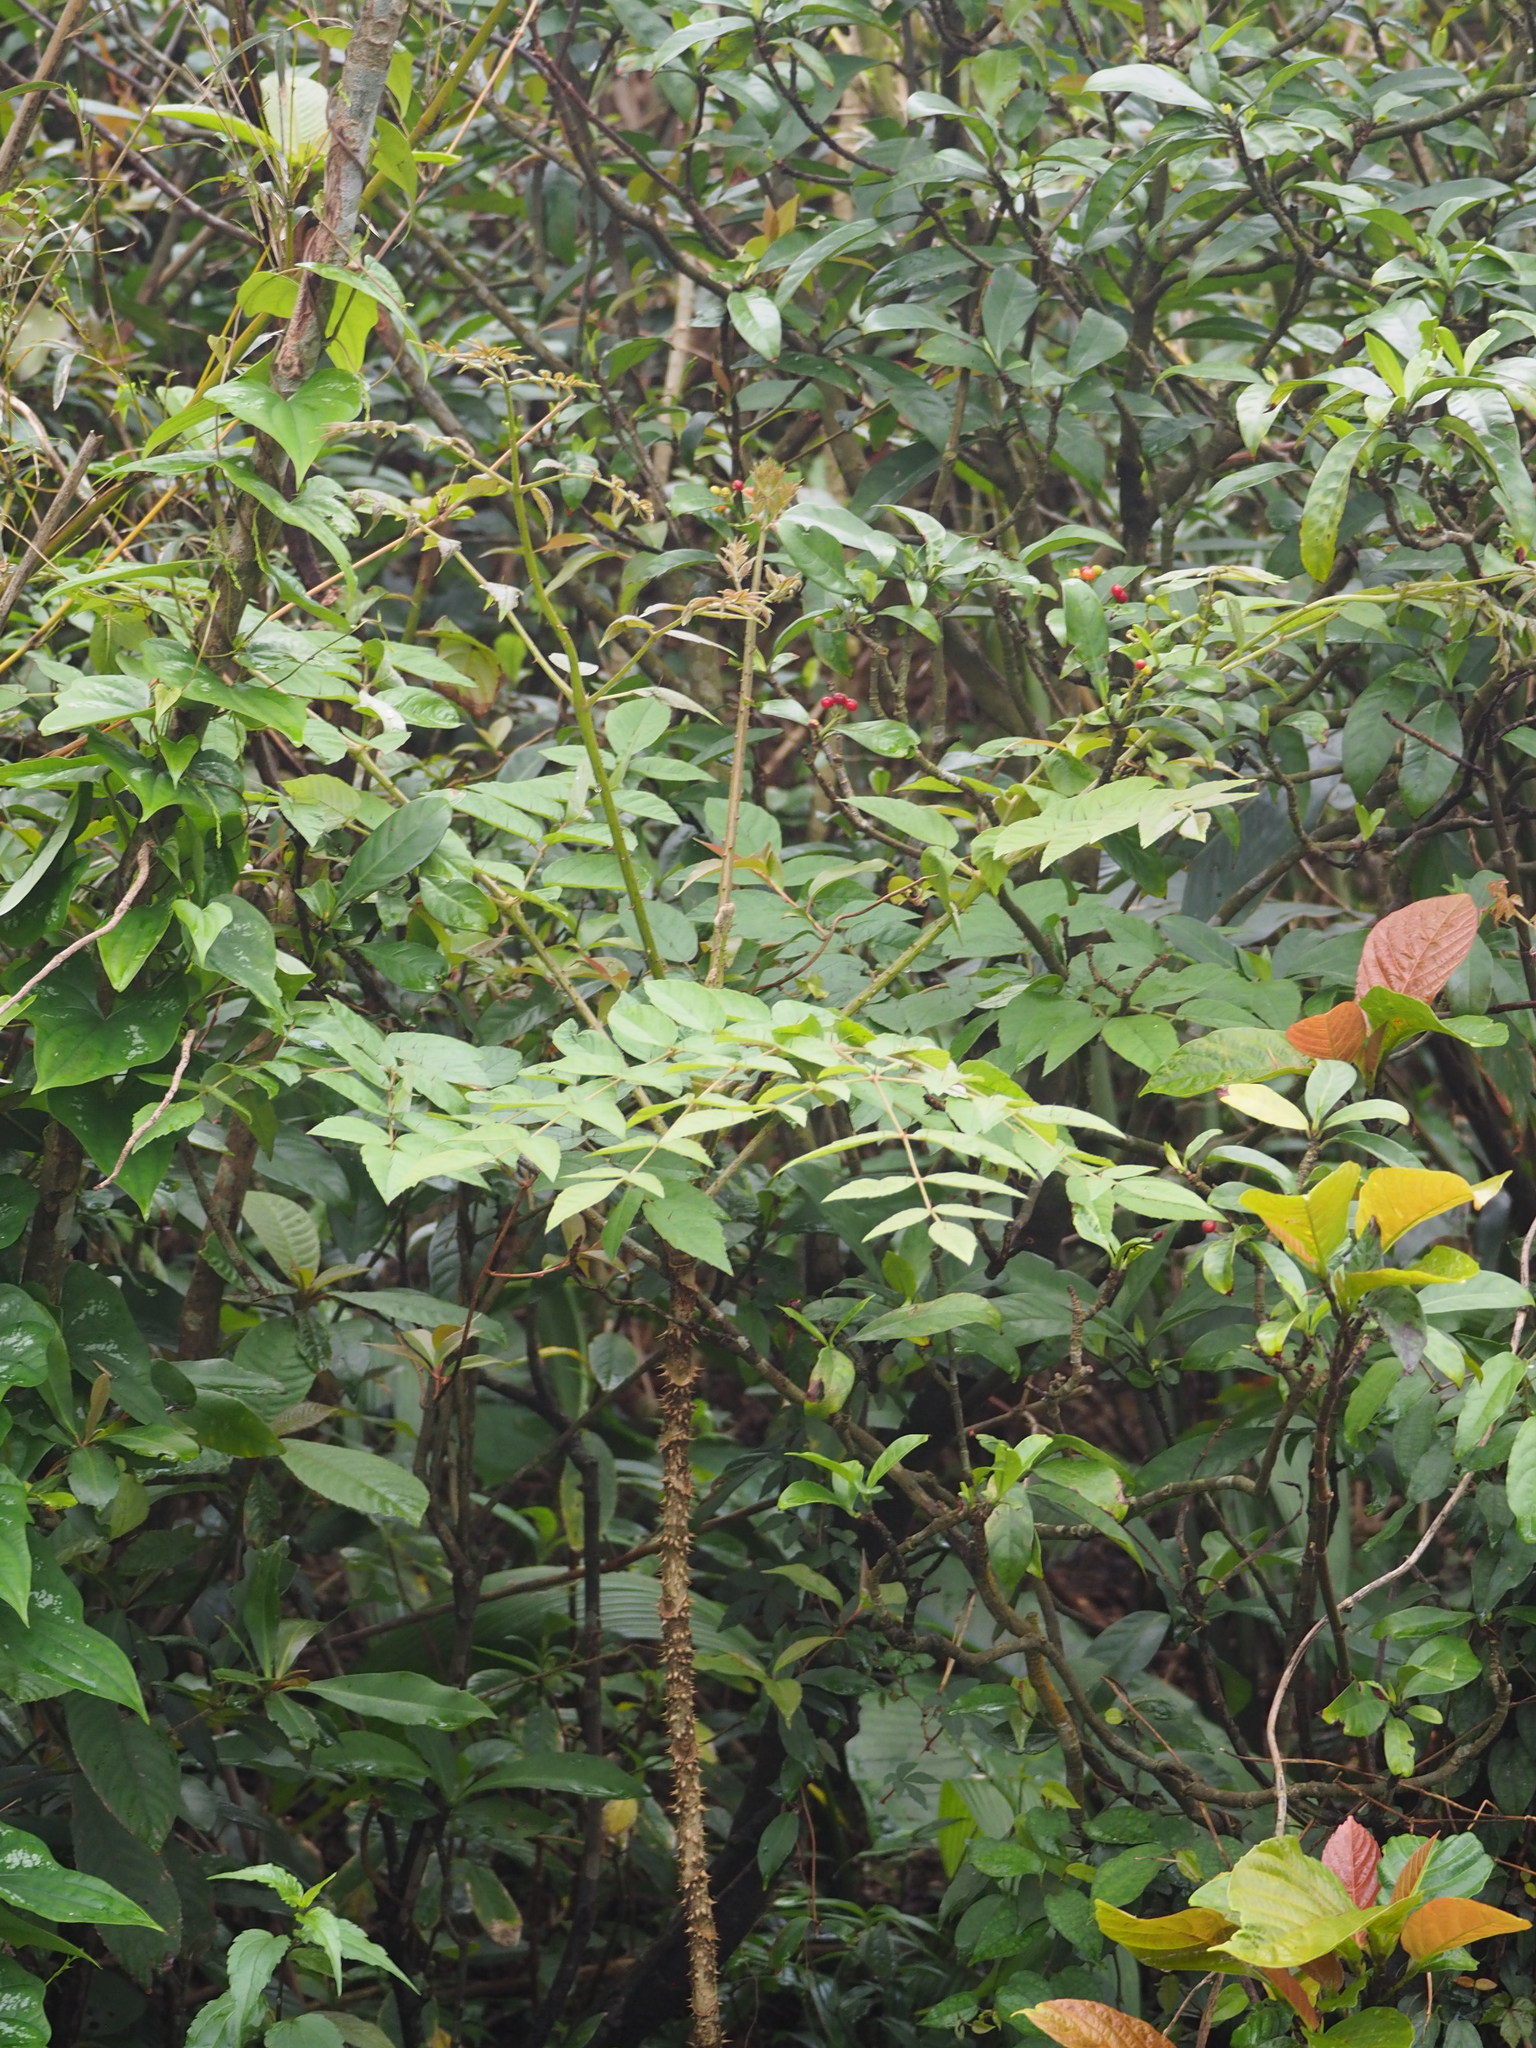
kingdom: Plantae
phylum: Tracheophyta
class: Magnoliopsida
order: Apiales
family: Araliaceae
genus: Aralia
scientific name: Aralia decaisneana
